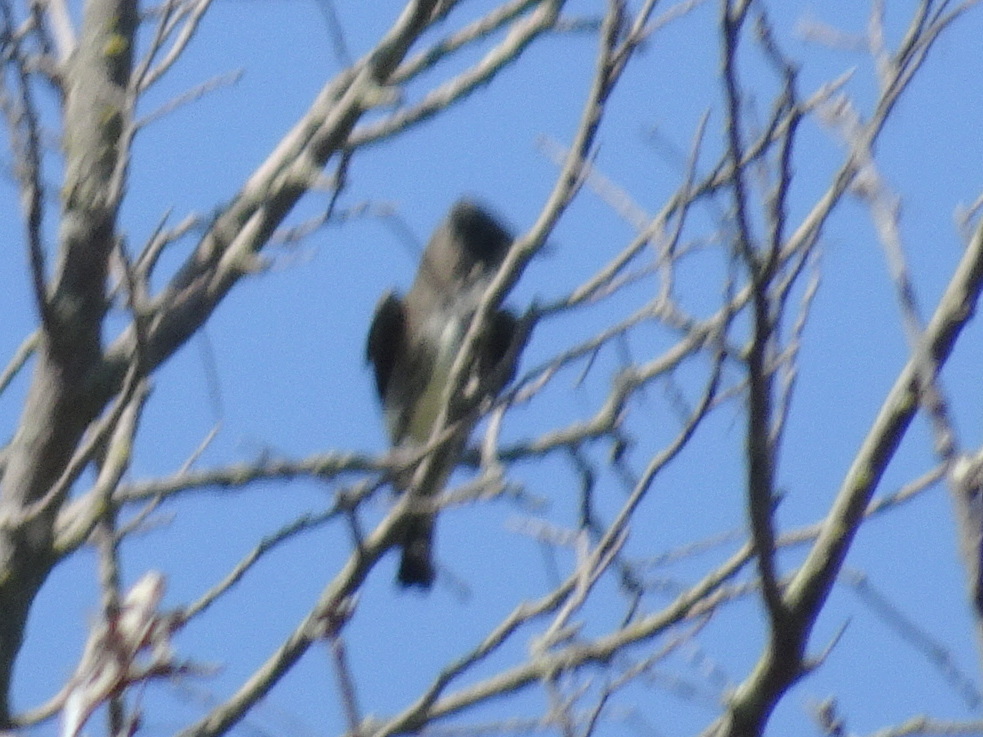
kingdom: Animalia
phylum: Chordata
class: Aves
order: Passeriformes
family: Tyrannidae
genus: Contopus
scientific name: Contopus cooperi
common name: Olive-sided flycatcher
